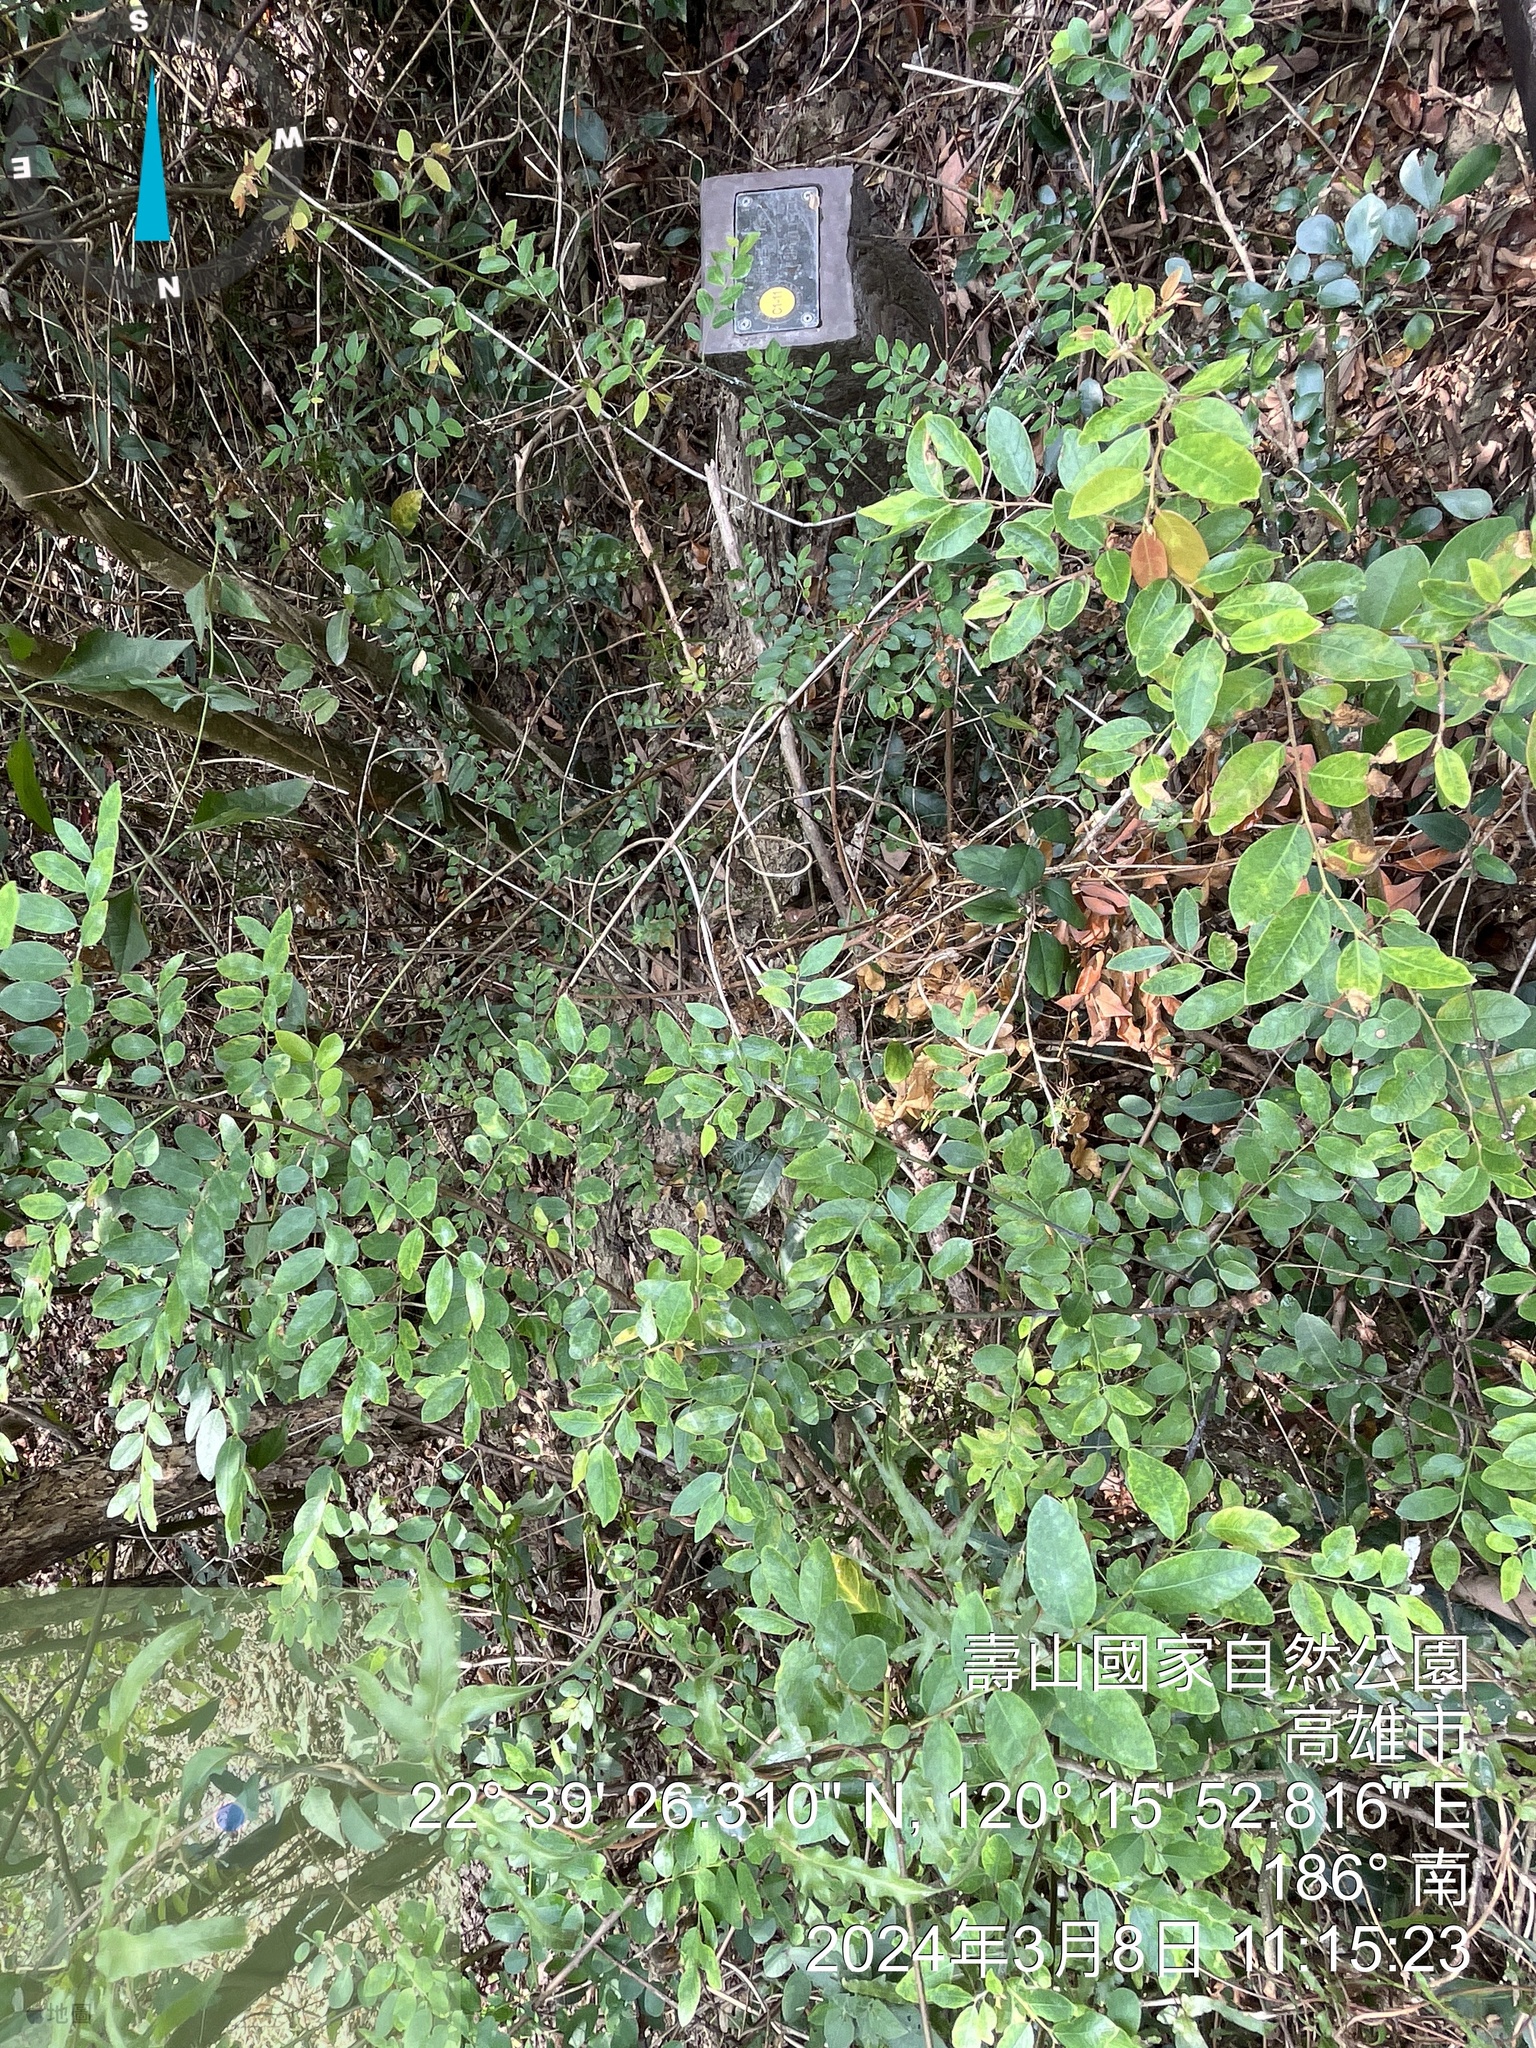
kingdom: Plantae
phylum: Tracheophyta
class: Magnoliopsida
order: Malpighiales
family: Phyllanthaceae
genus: Phyllanthus
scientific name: Phyllanthus reticulatus
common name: Potato bush
